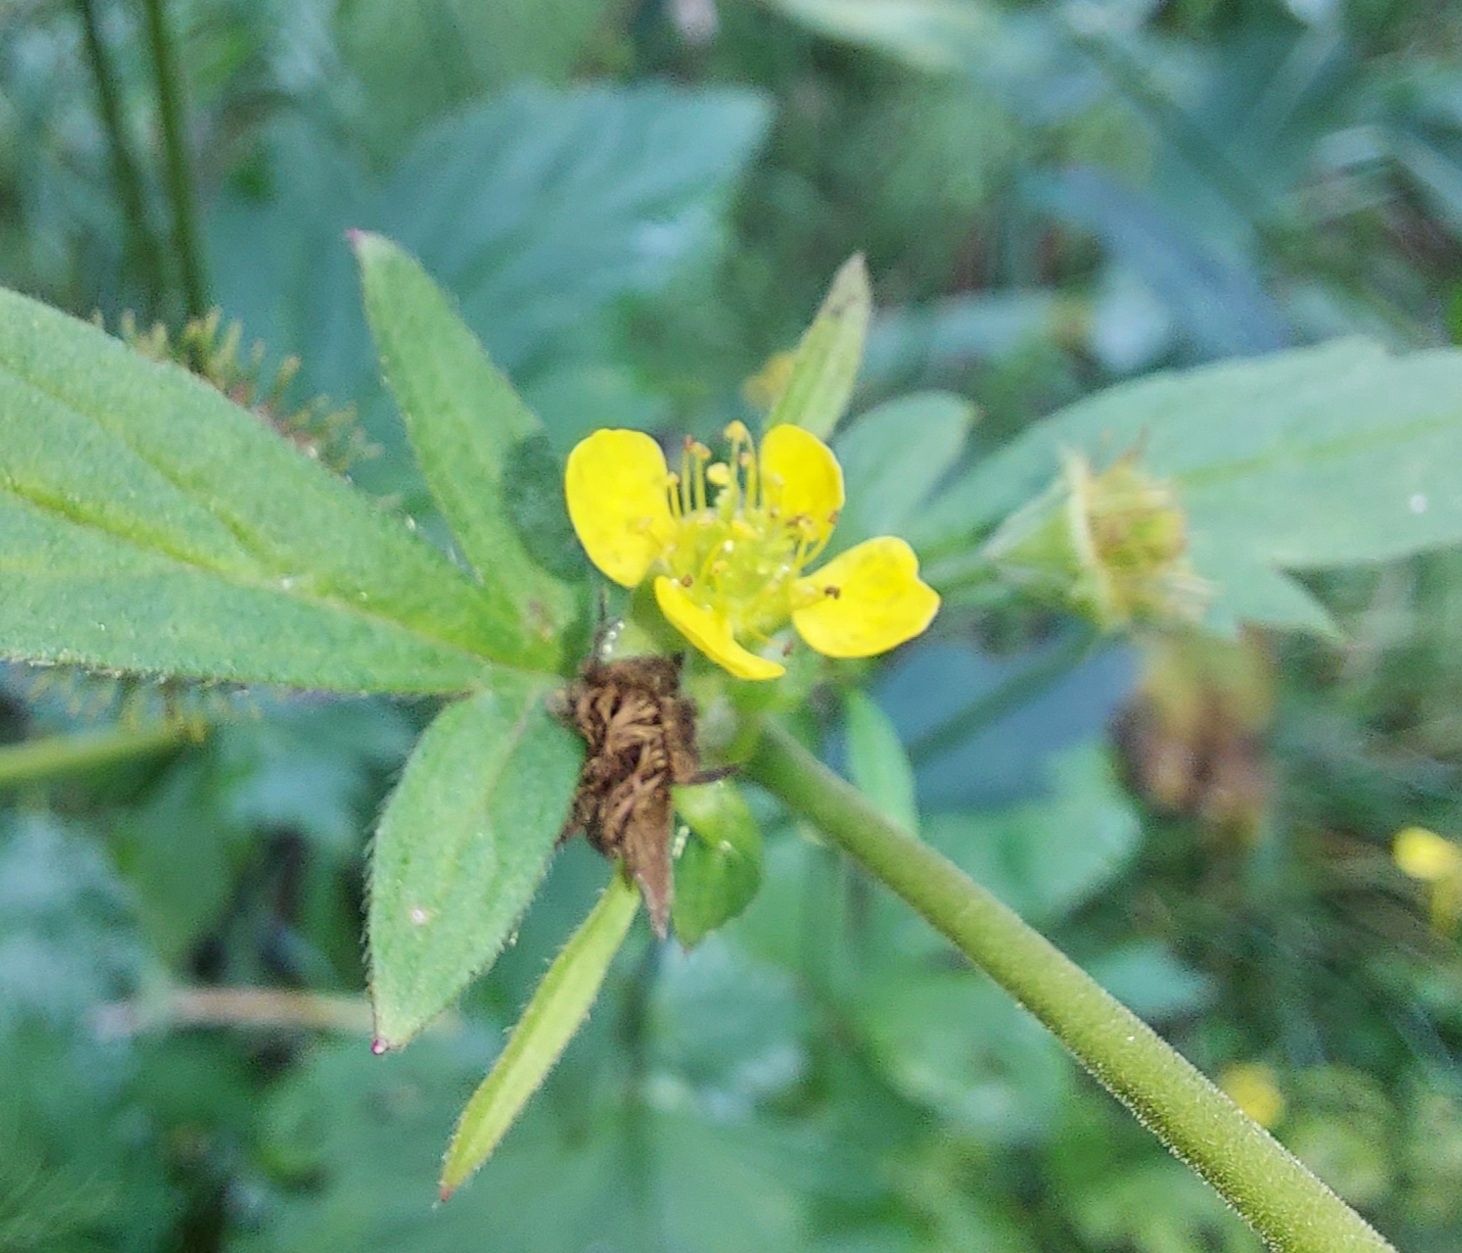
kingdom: Plantae
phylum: Tracheophyta
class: Magnoliopsida
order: Rosales
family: Rosaceae
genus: Geum
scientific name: Geum aleppicum
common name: Yellow avens
